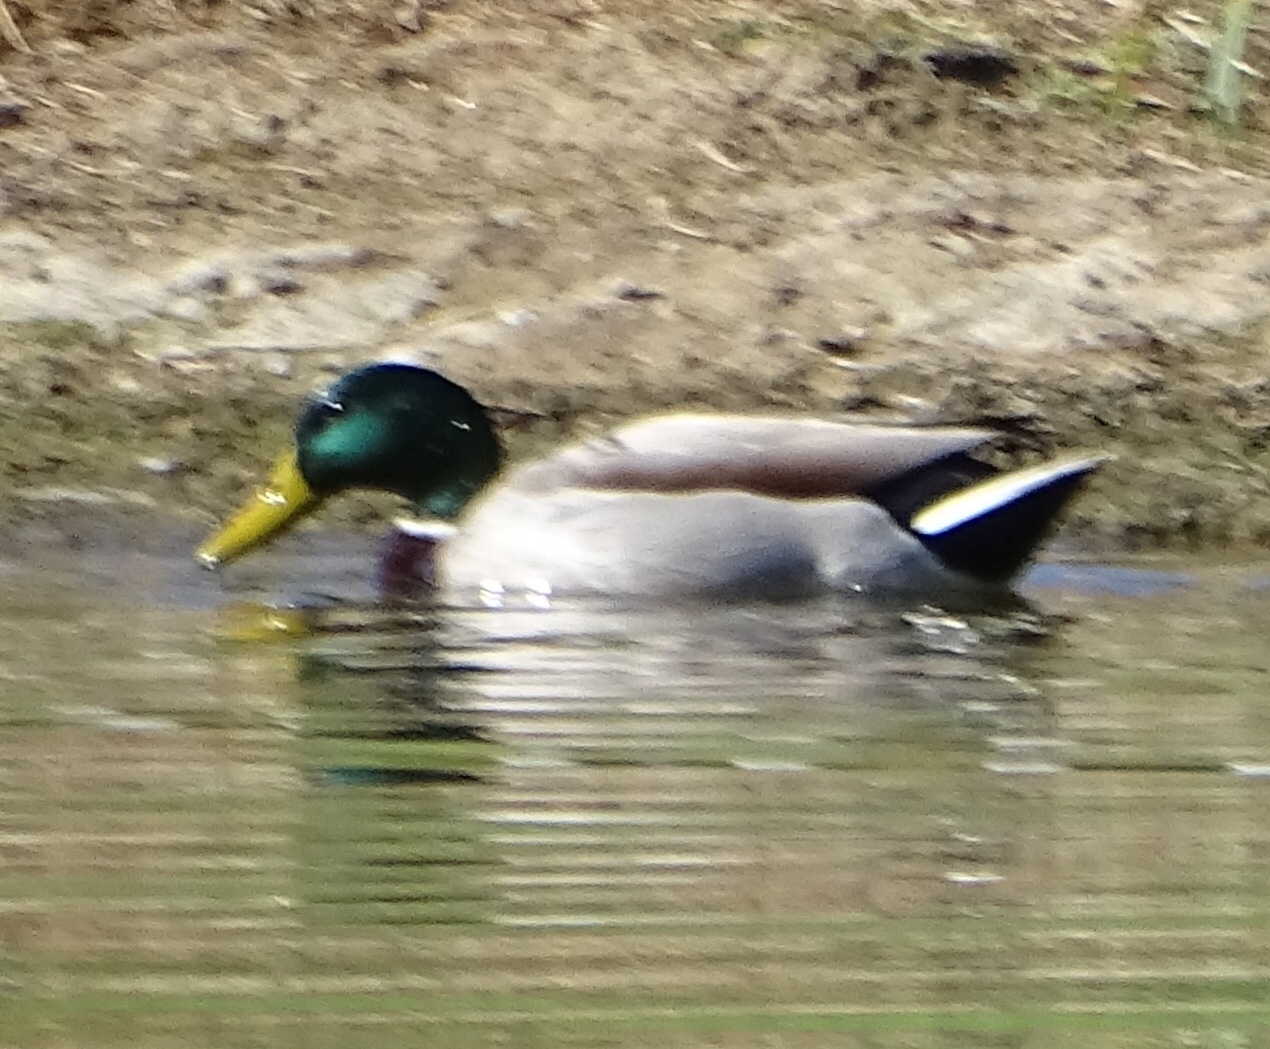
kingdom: Animalia
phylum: Chordata
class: Aves
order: Anseriformes
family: Anatidae
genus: Anas
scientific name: Anas platyrhynchos
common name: Mallard
